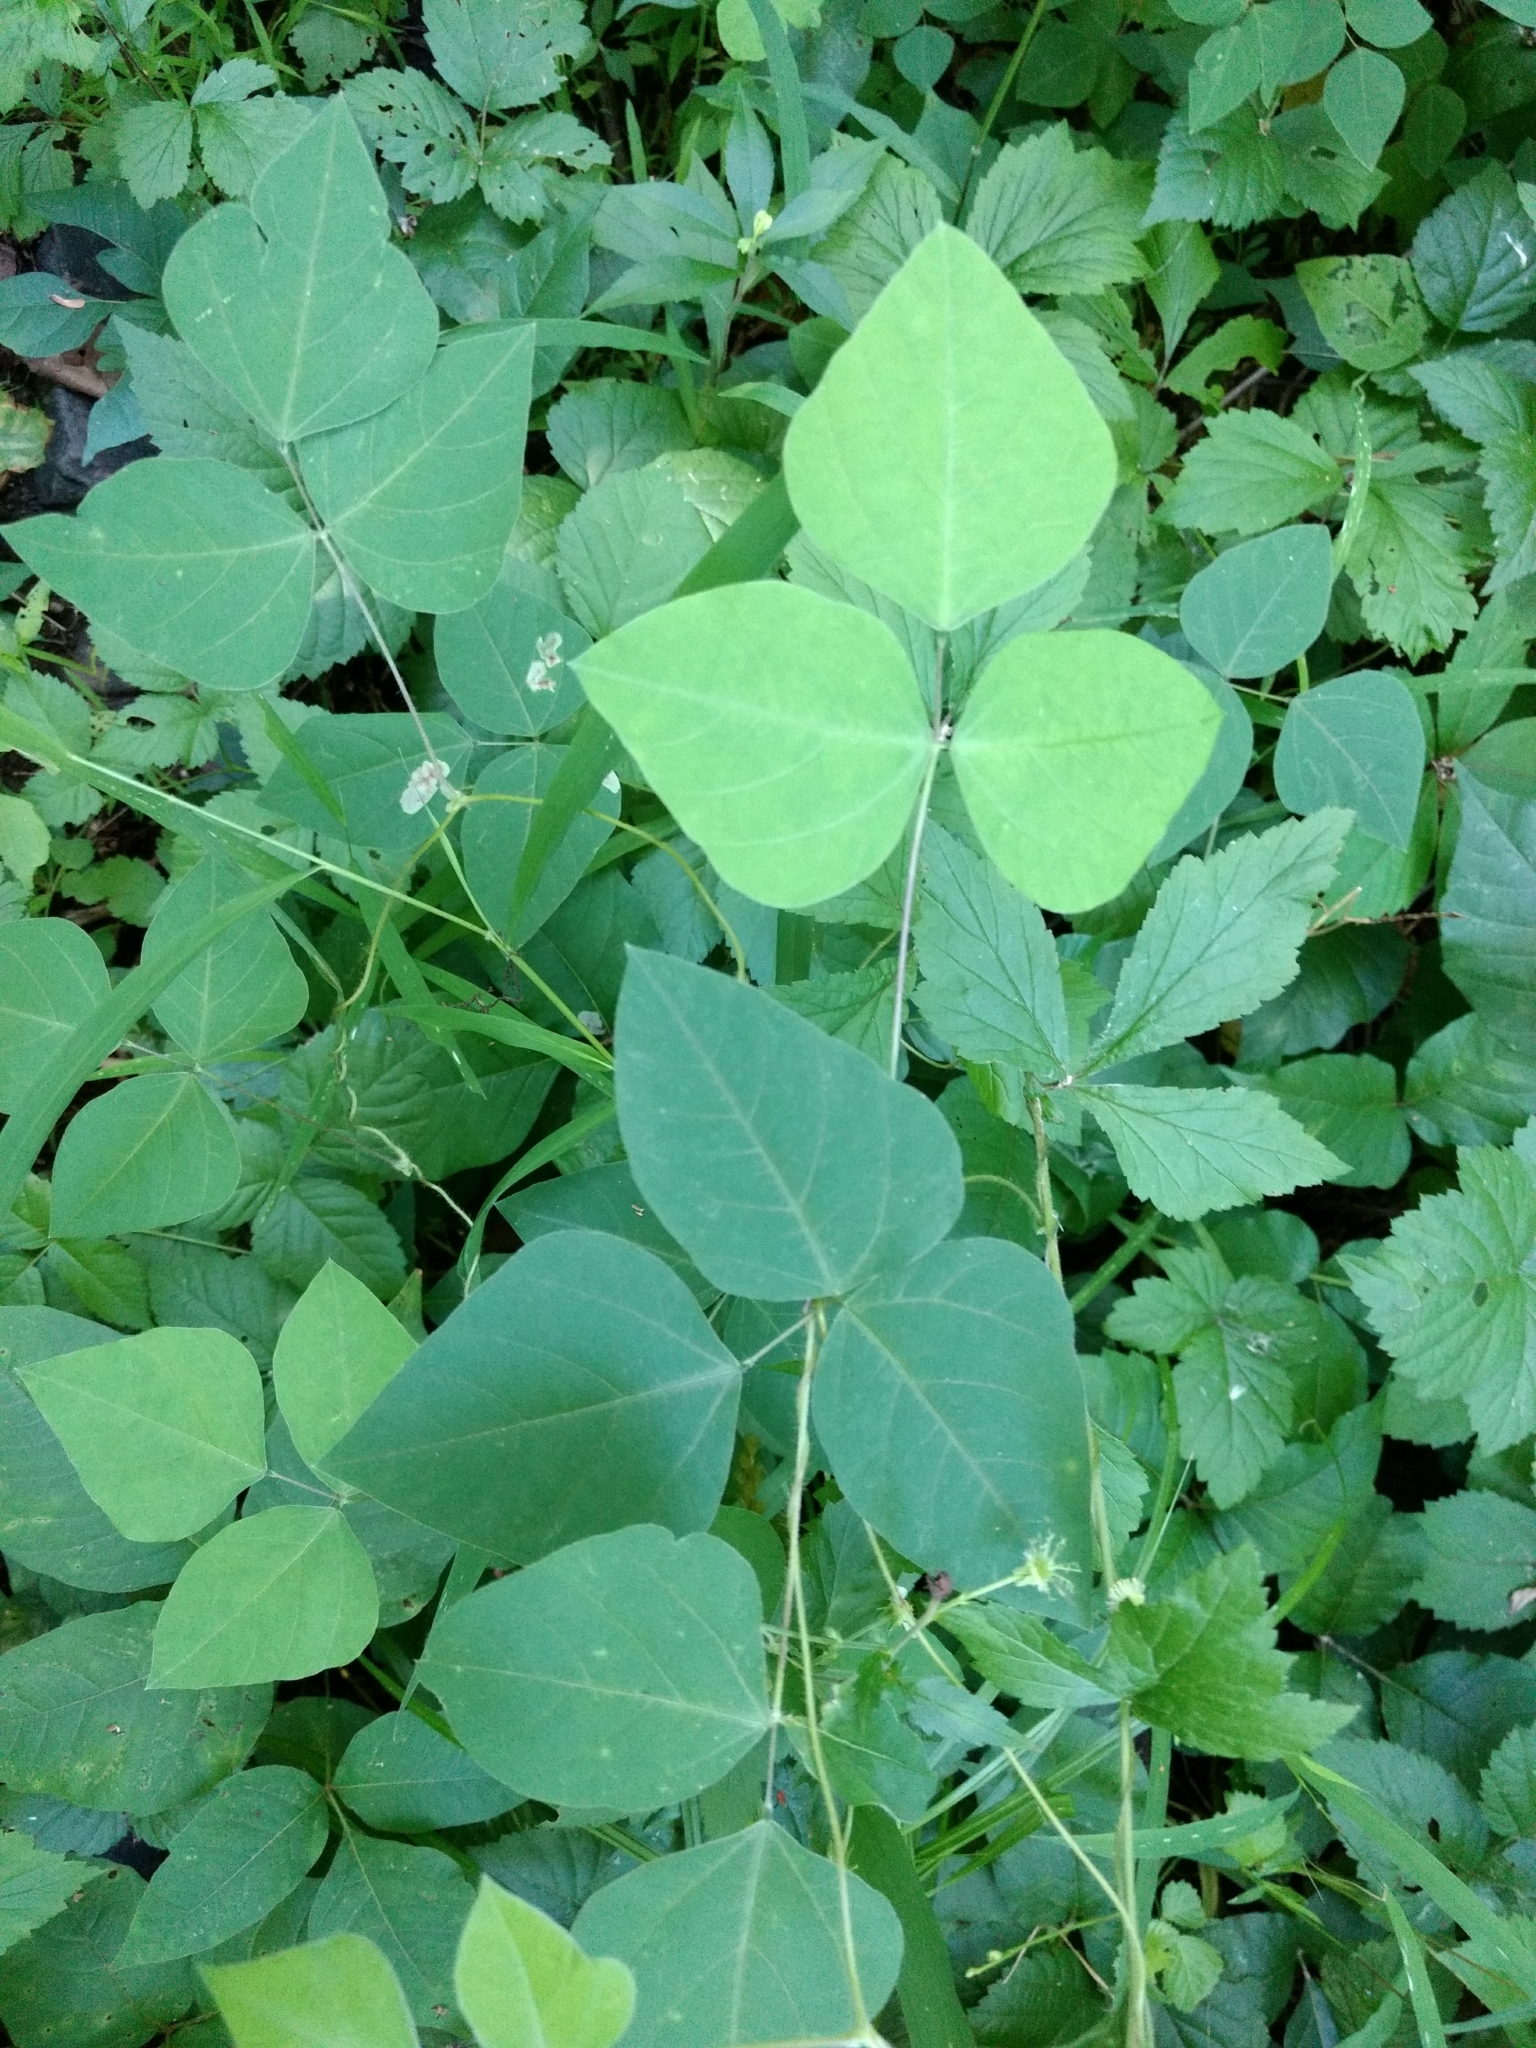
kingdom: Plantae
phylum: Tracheophyta
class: Magnoliopsida
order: Fabales
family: Fabaceae
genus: Amphicarpaea
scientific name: Amphicarpaea bracteata
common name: American hog peanut
